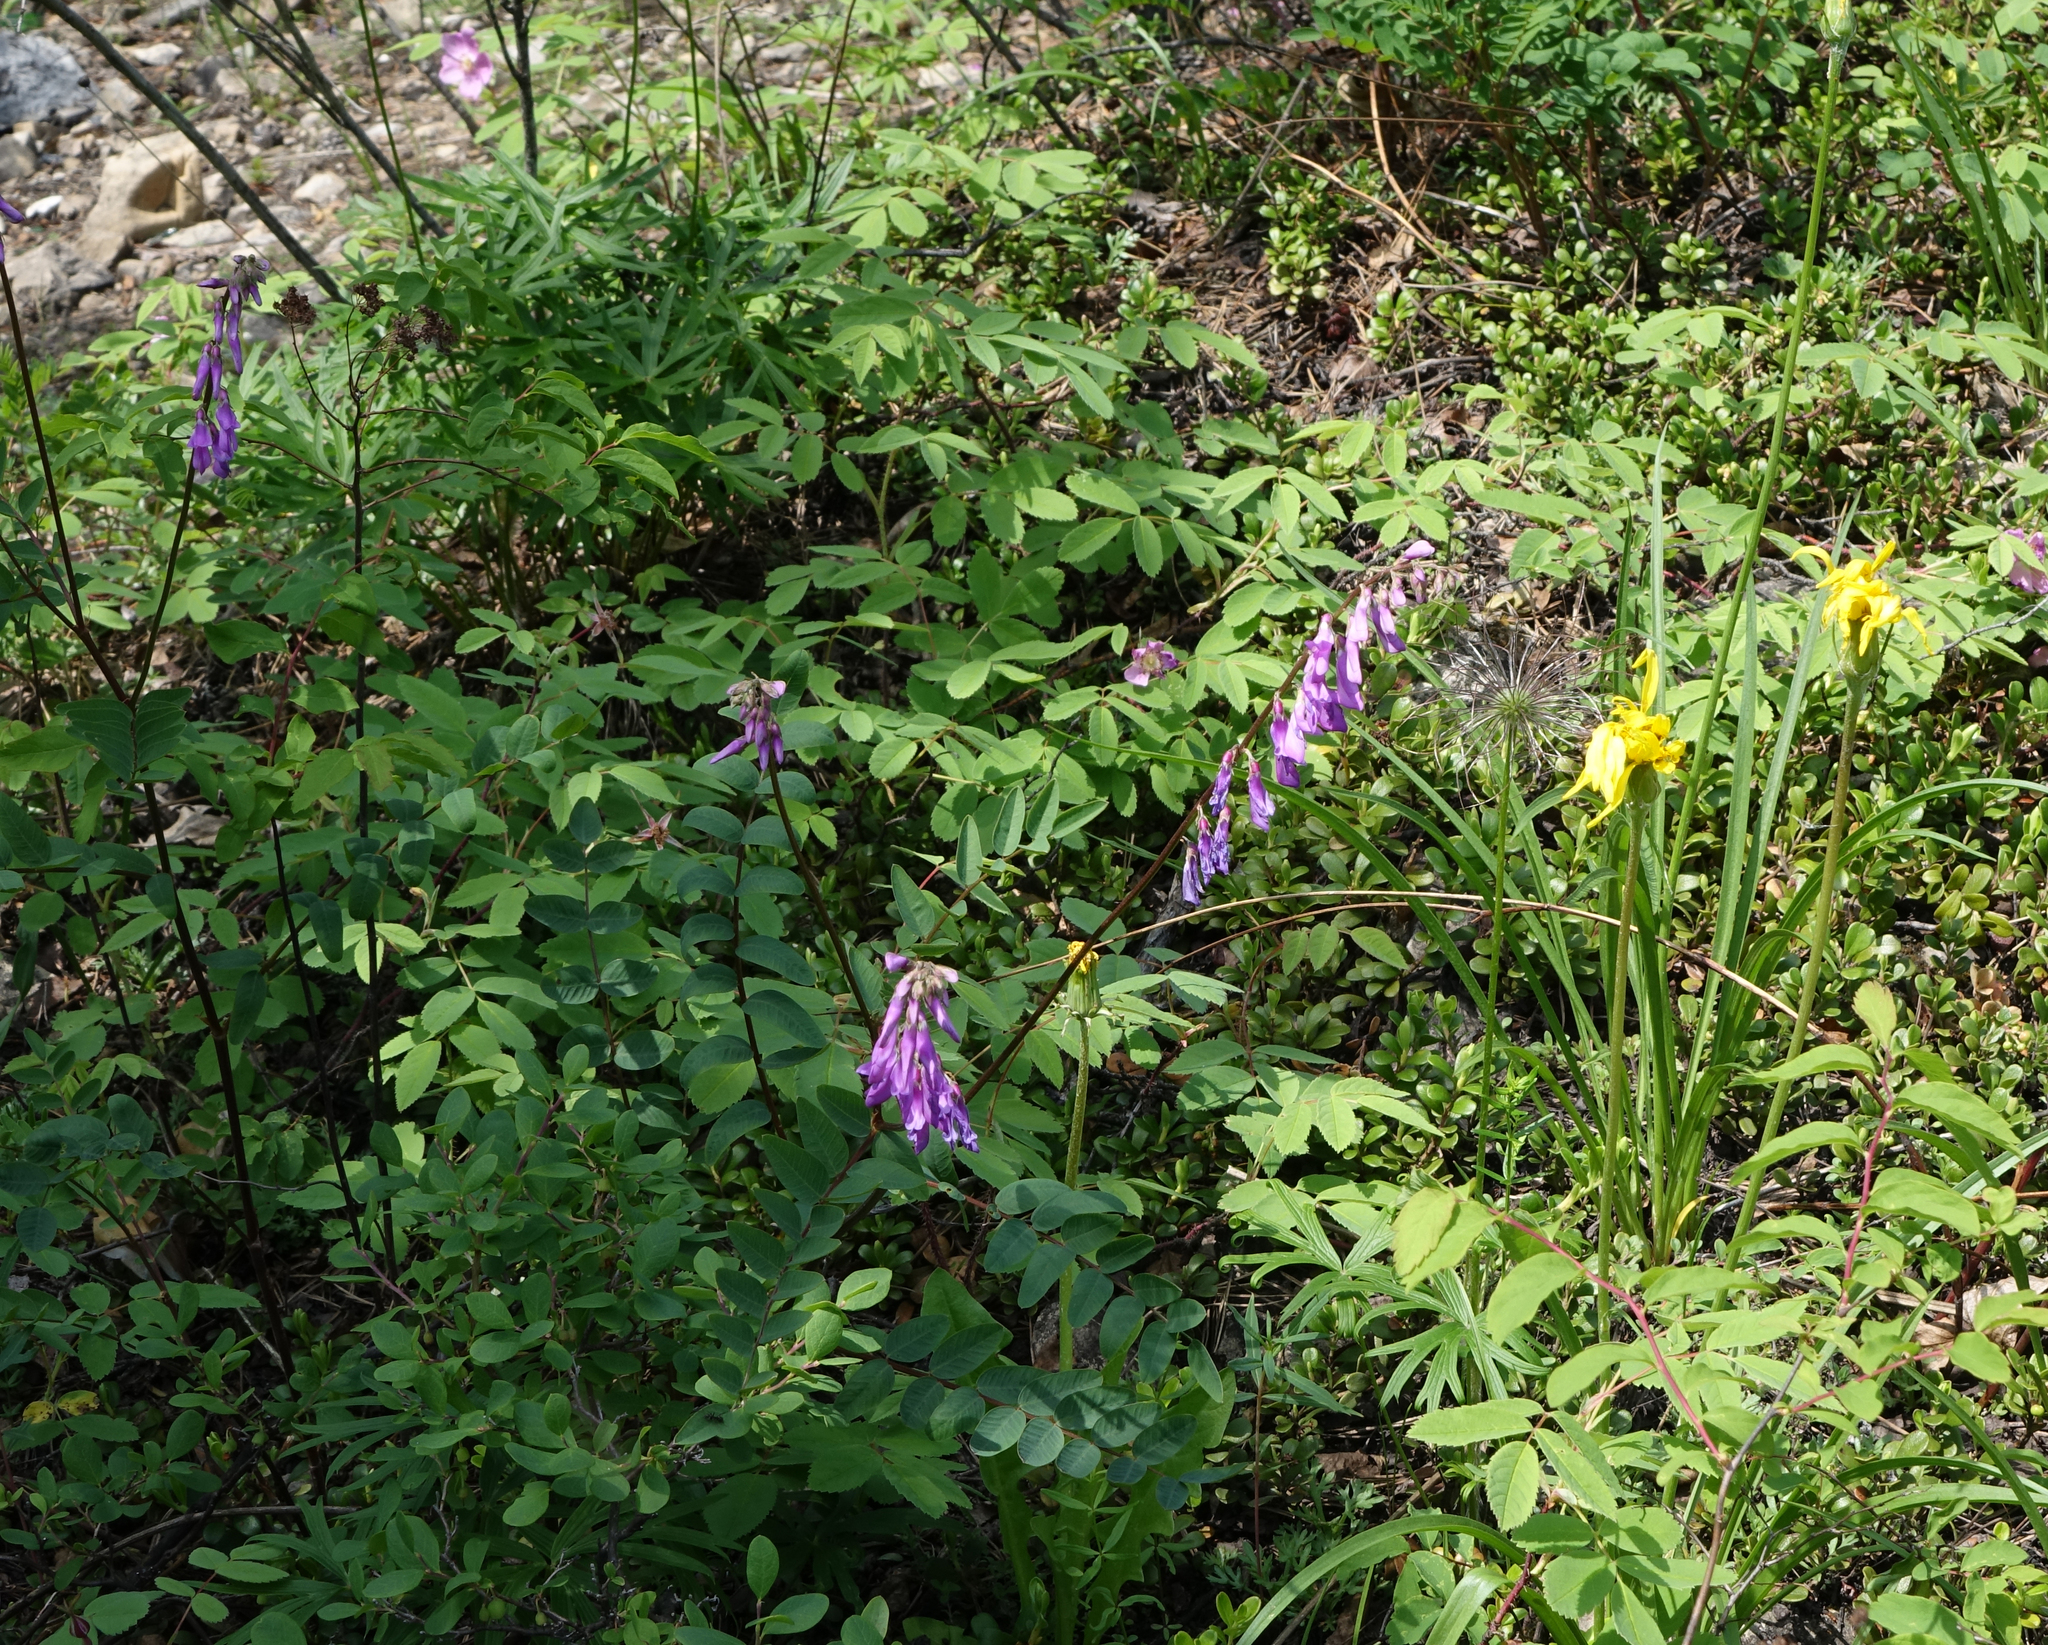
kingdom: Plantae
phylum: Tracheophyta
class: Magnoliopsida
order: Fabales
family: Fabaceae
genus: Hedysarum
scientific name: Hedysarum branthii
